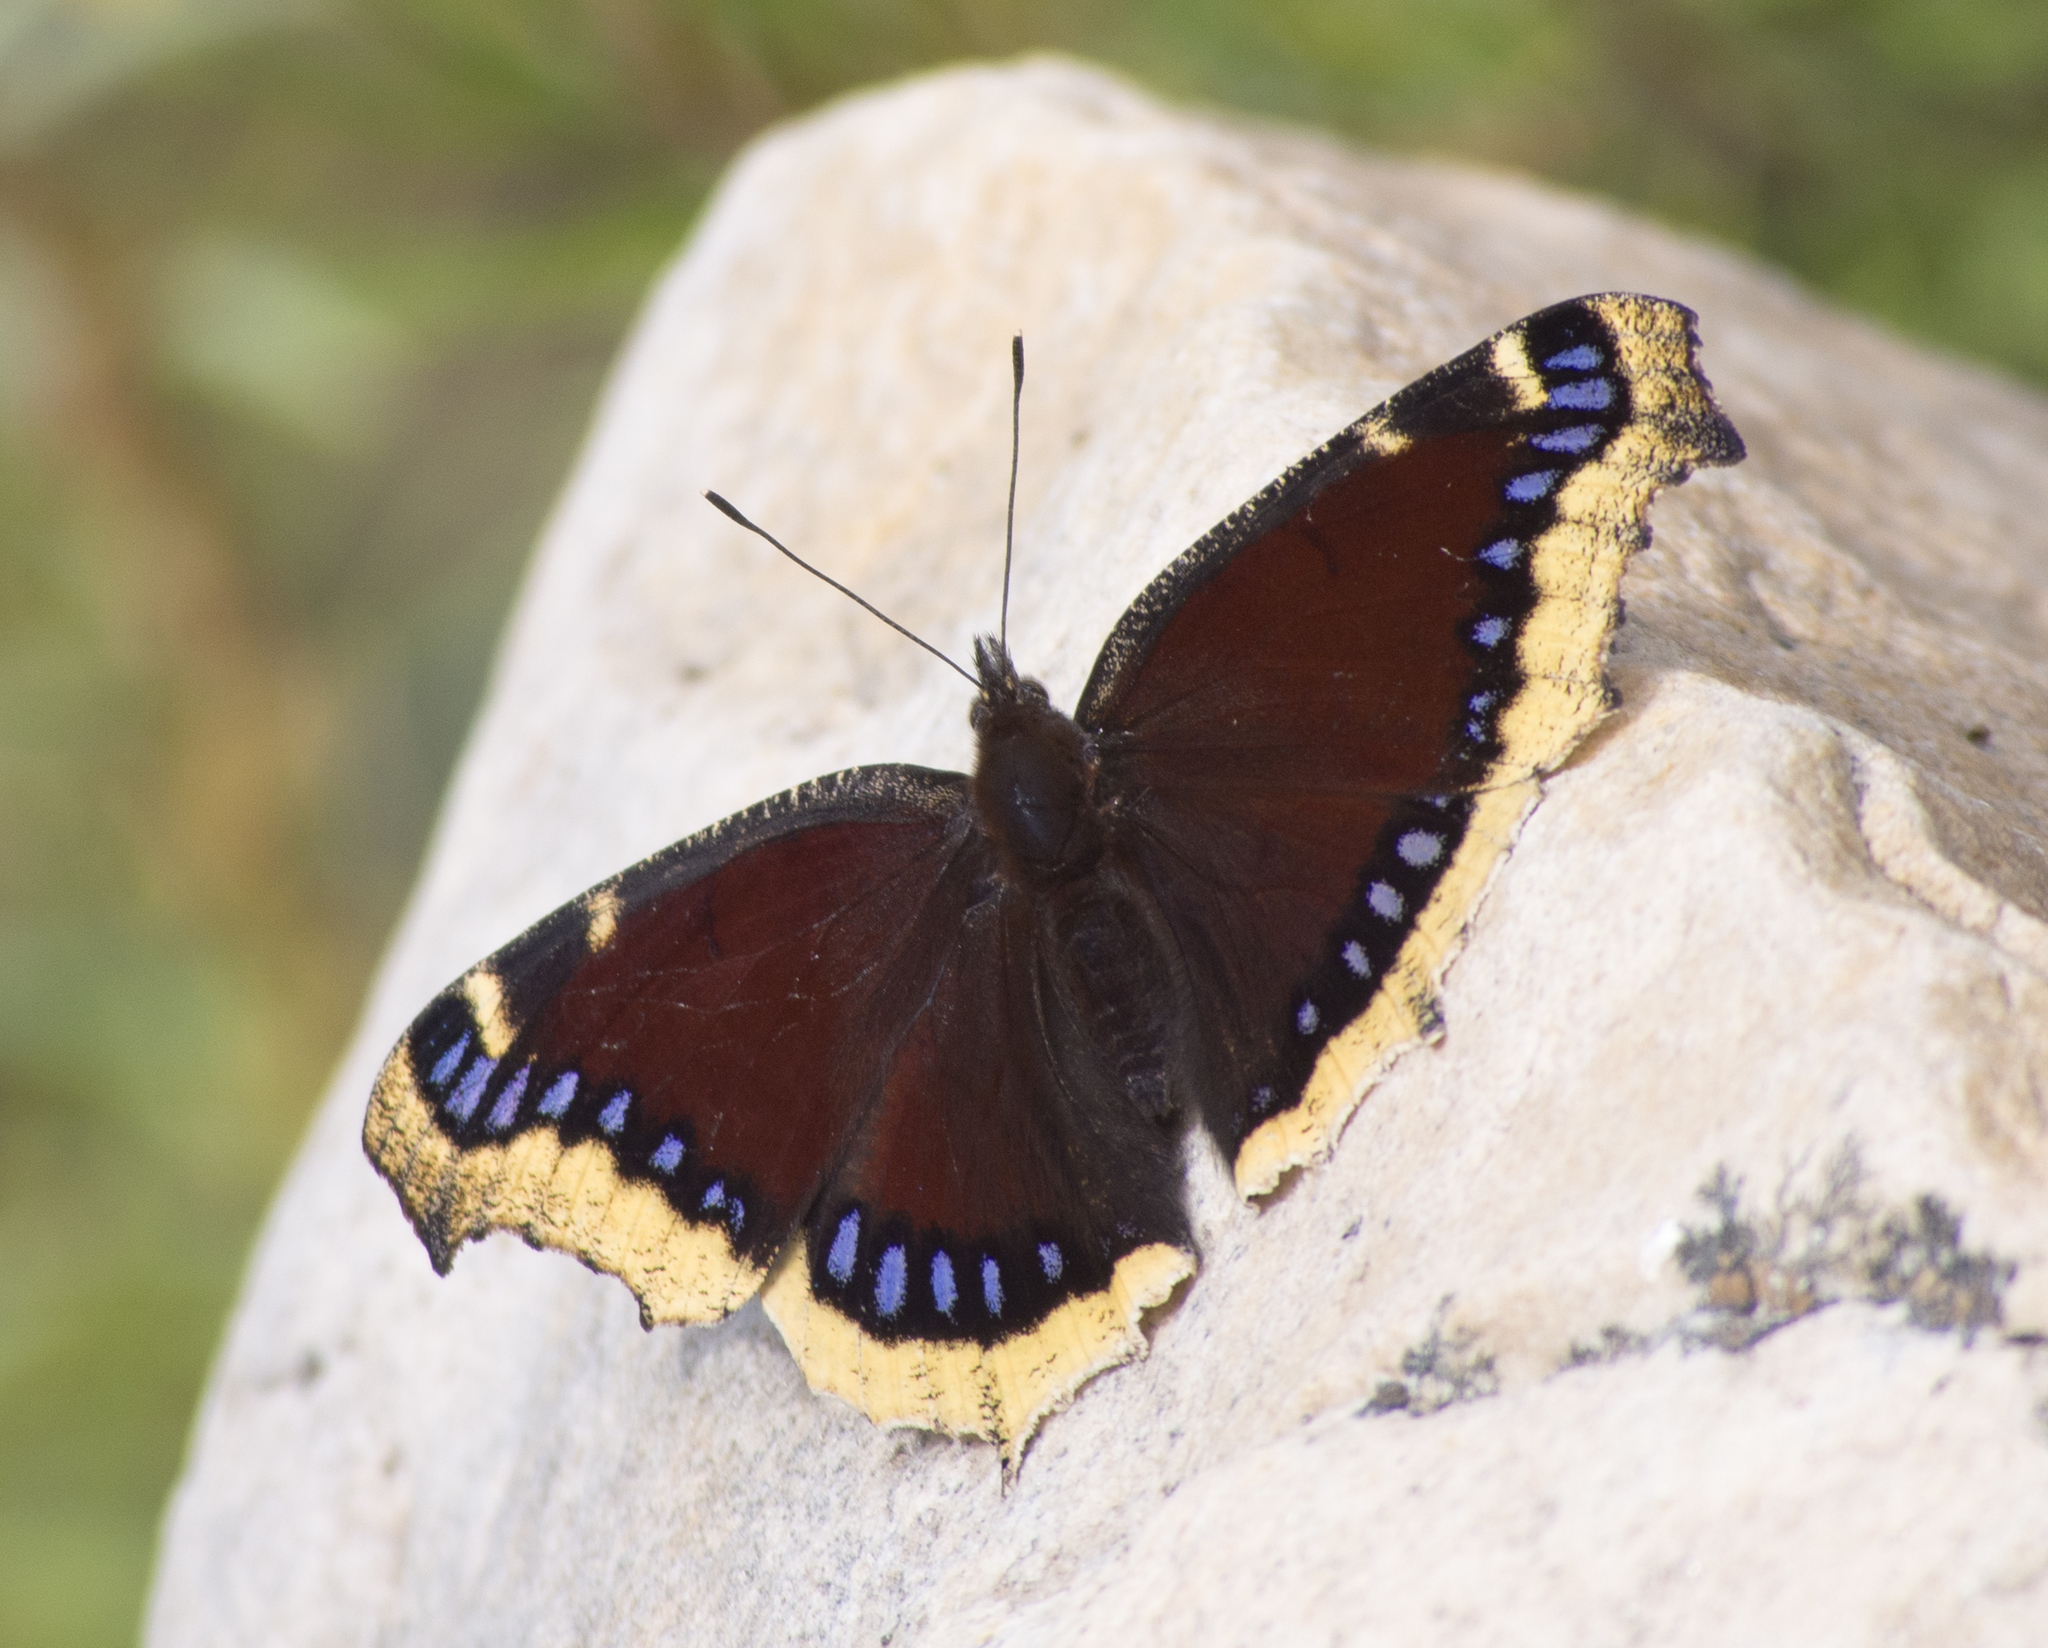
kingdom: Animalia
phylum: Arthropoda
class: Insecta
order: Lepidoptera
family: Nymphalidae
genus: Nymphalis
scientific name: Nymphalis antiopa
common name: Camberwell beauty
